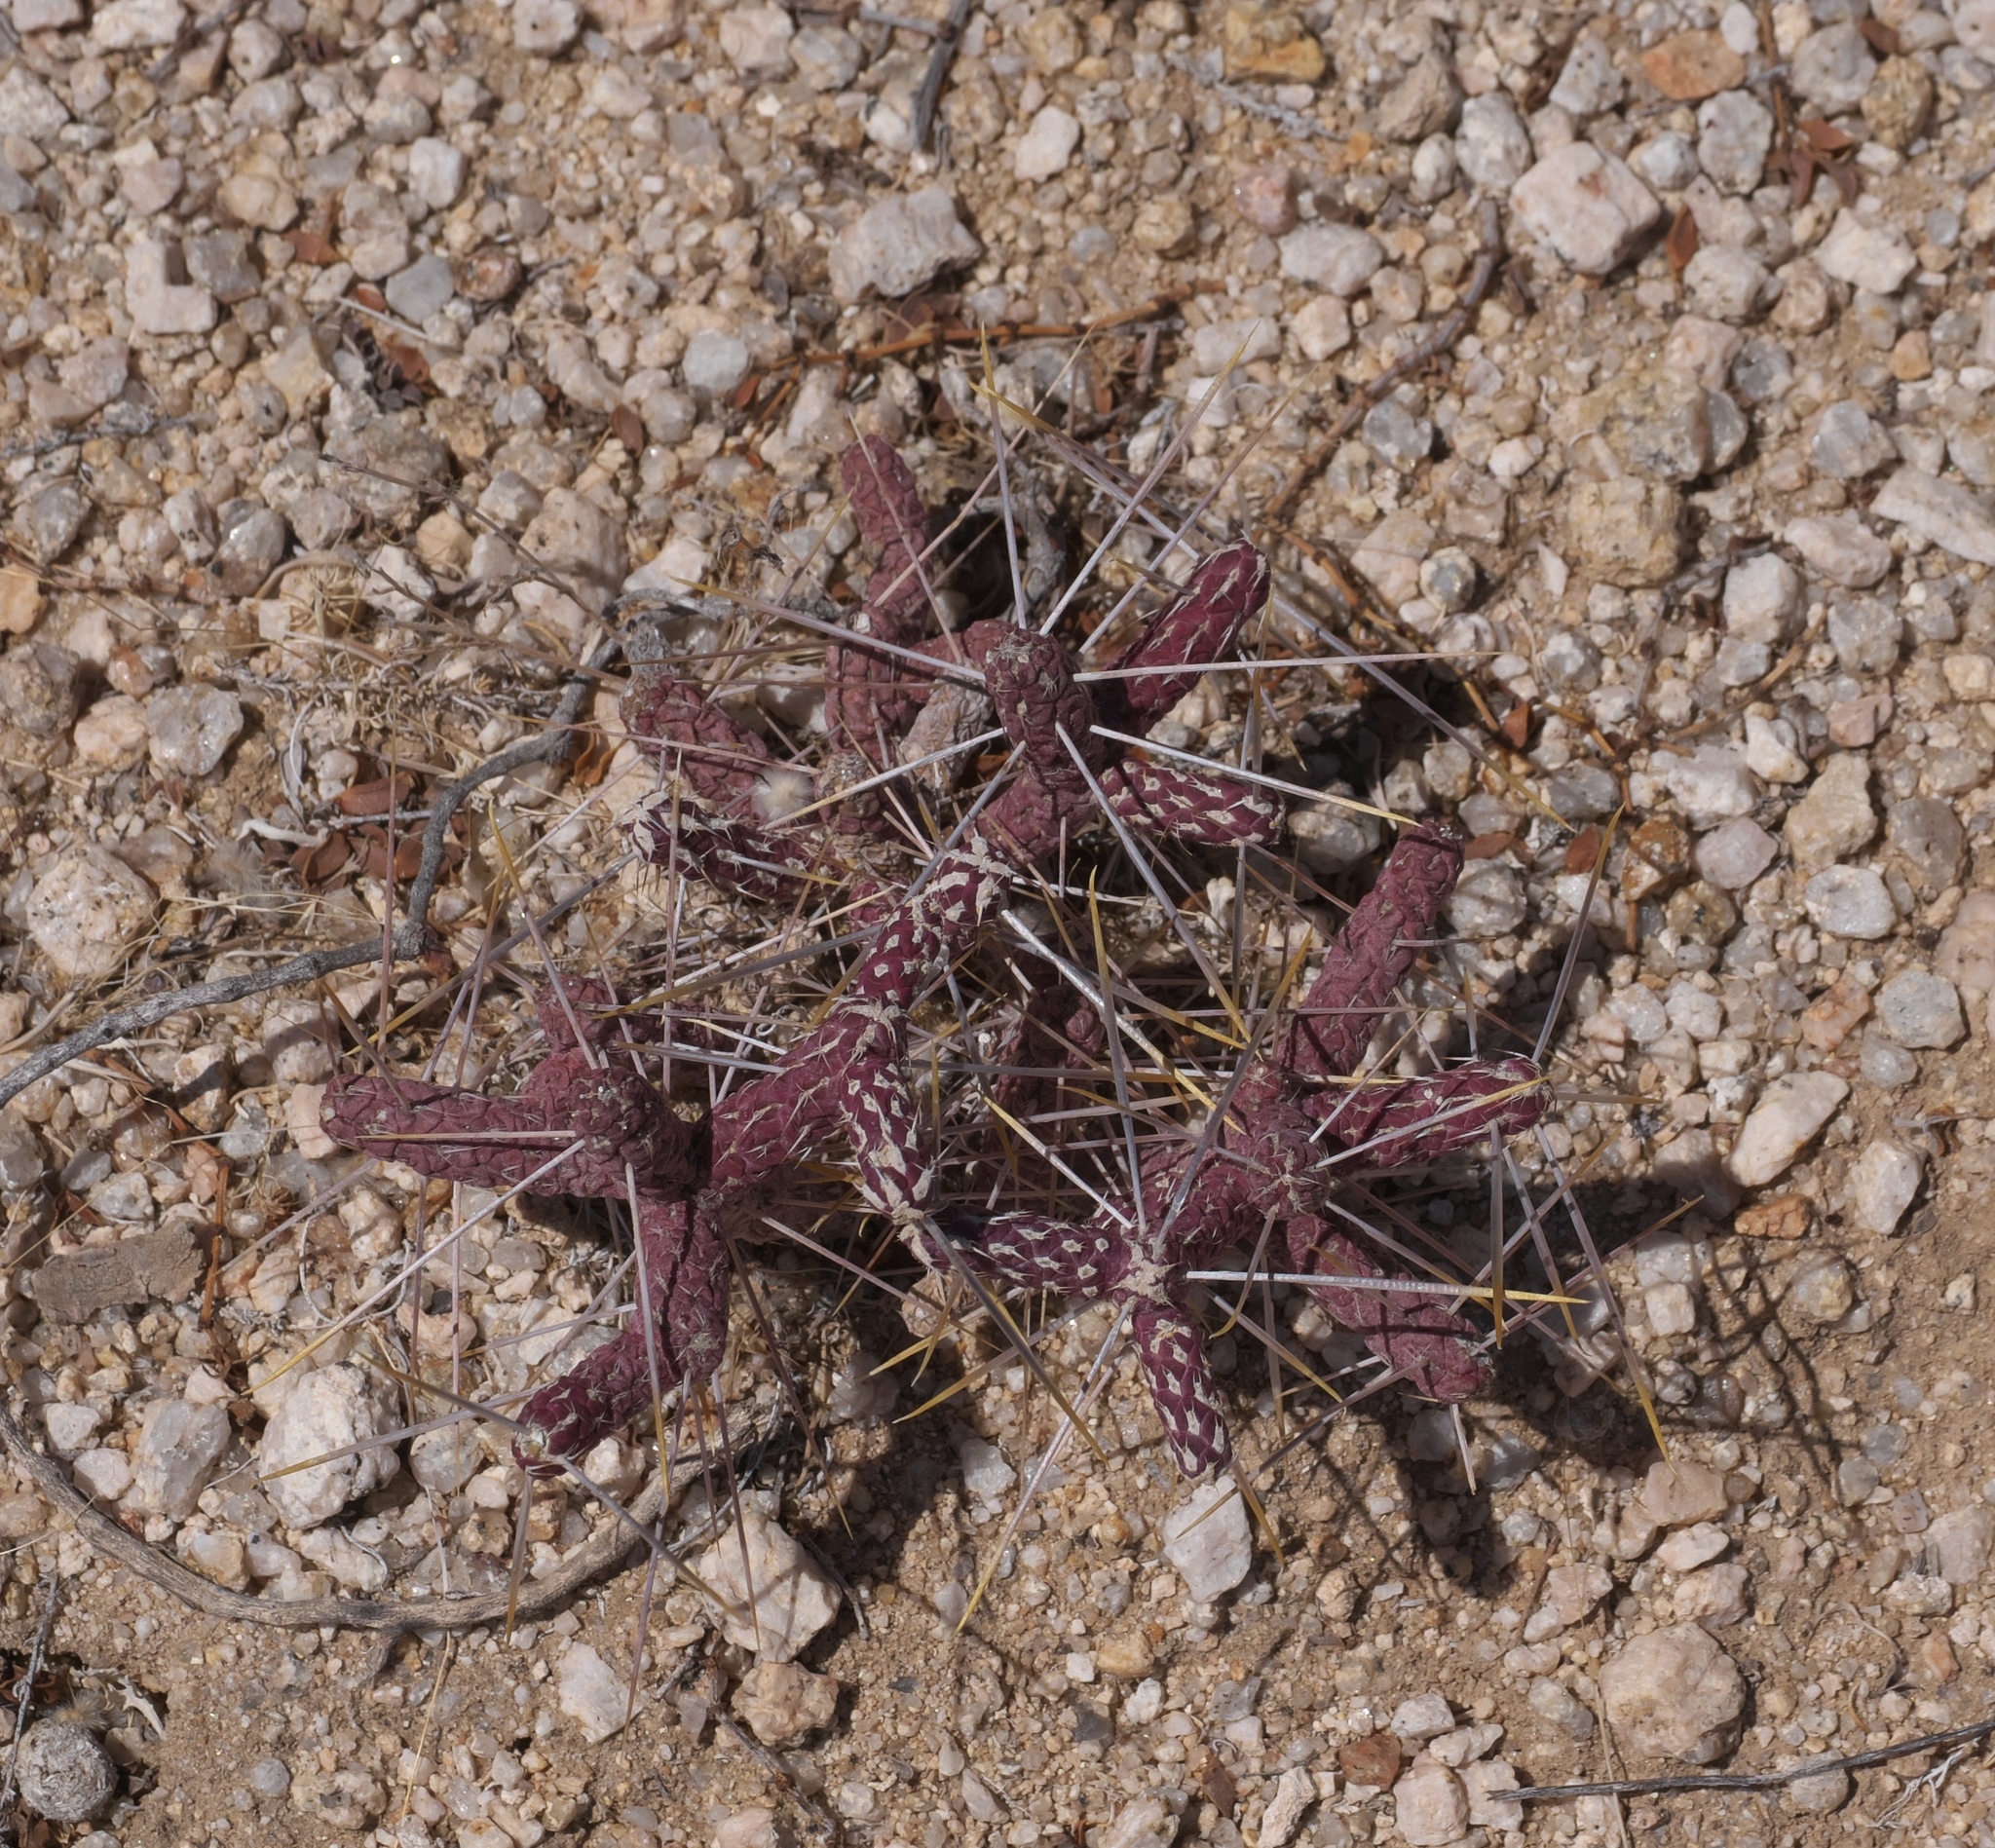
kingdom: Plantae
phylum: Tracheophyta
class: Magnoliopsida
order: Caryophyllales
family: Cactaceae
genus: Cylindropuntia
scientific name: Cylindropuntia ramosissima
